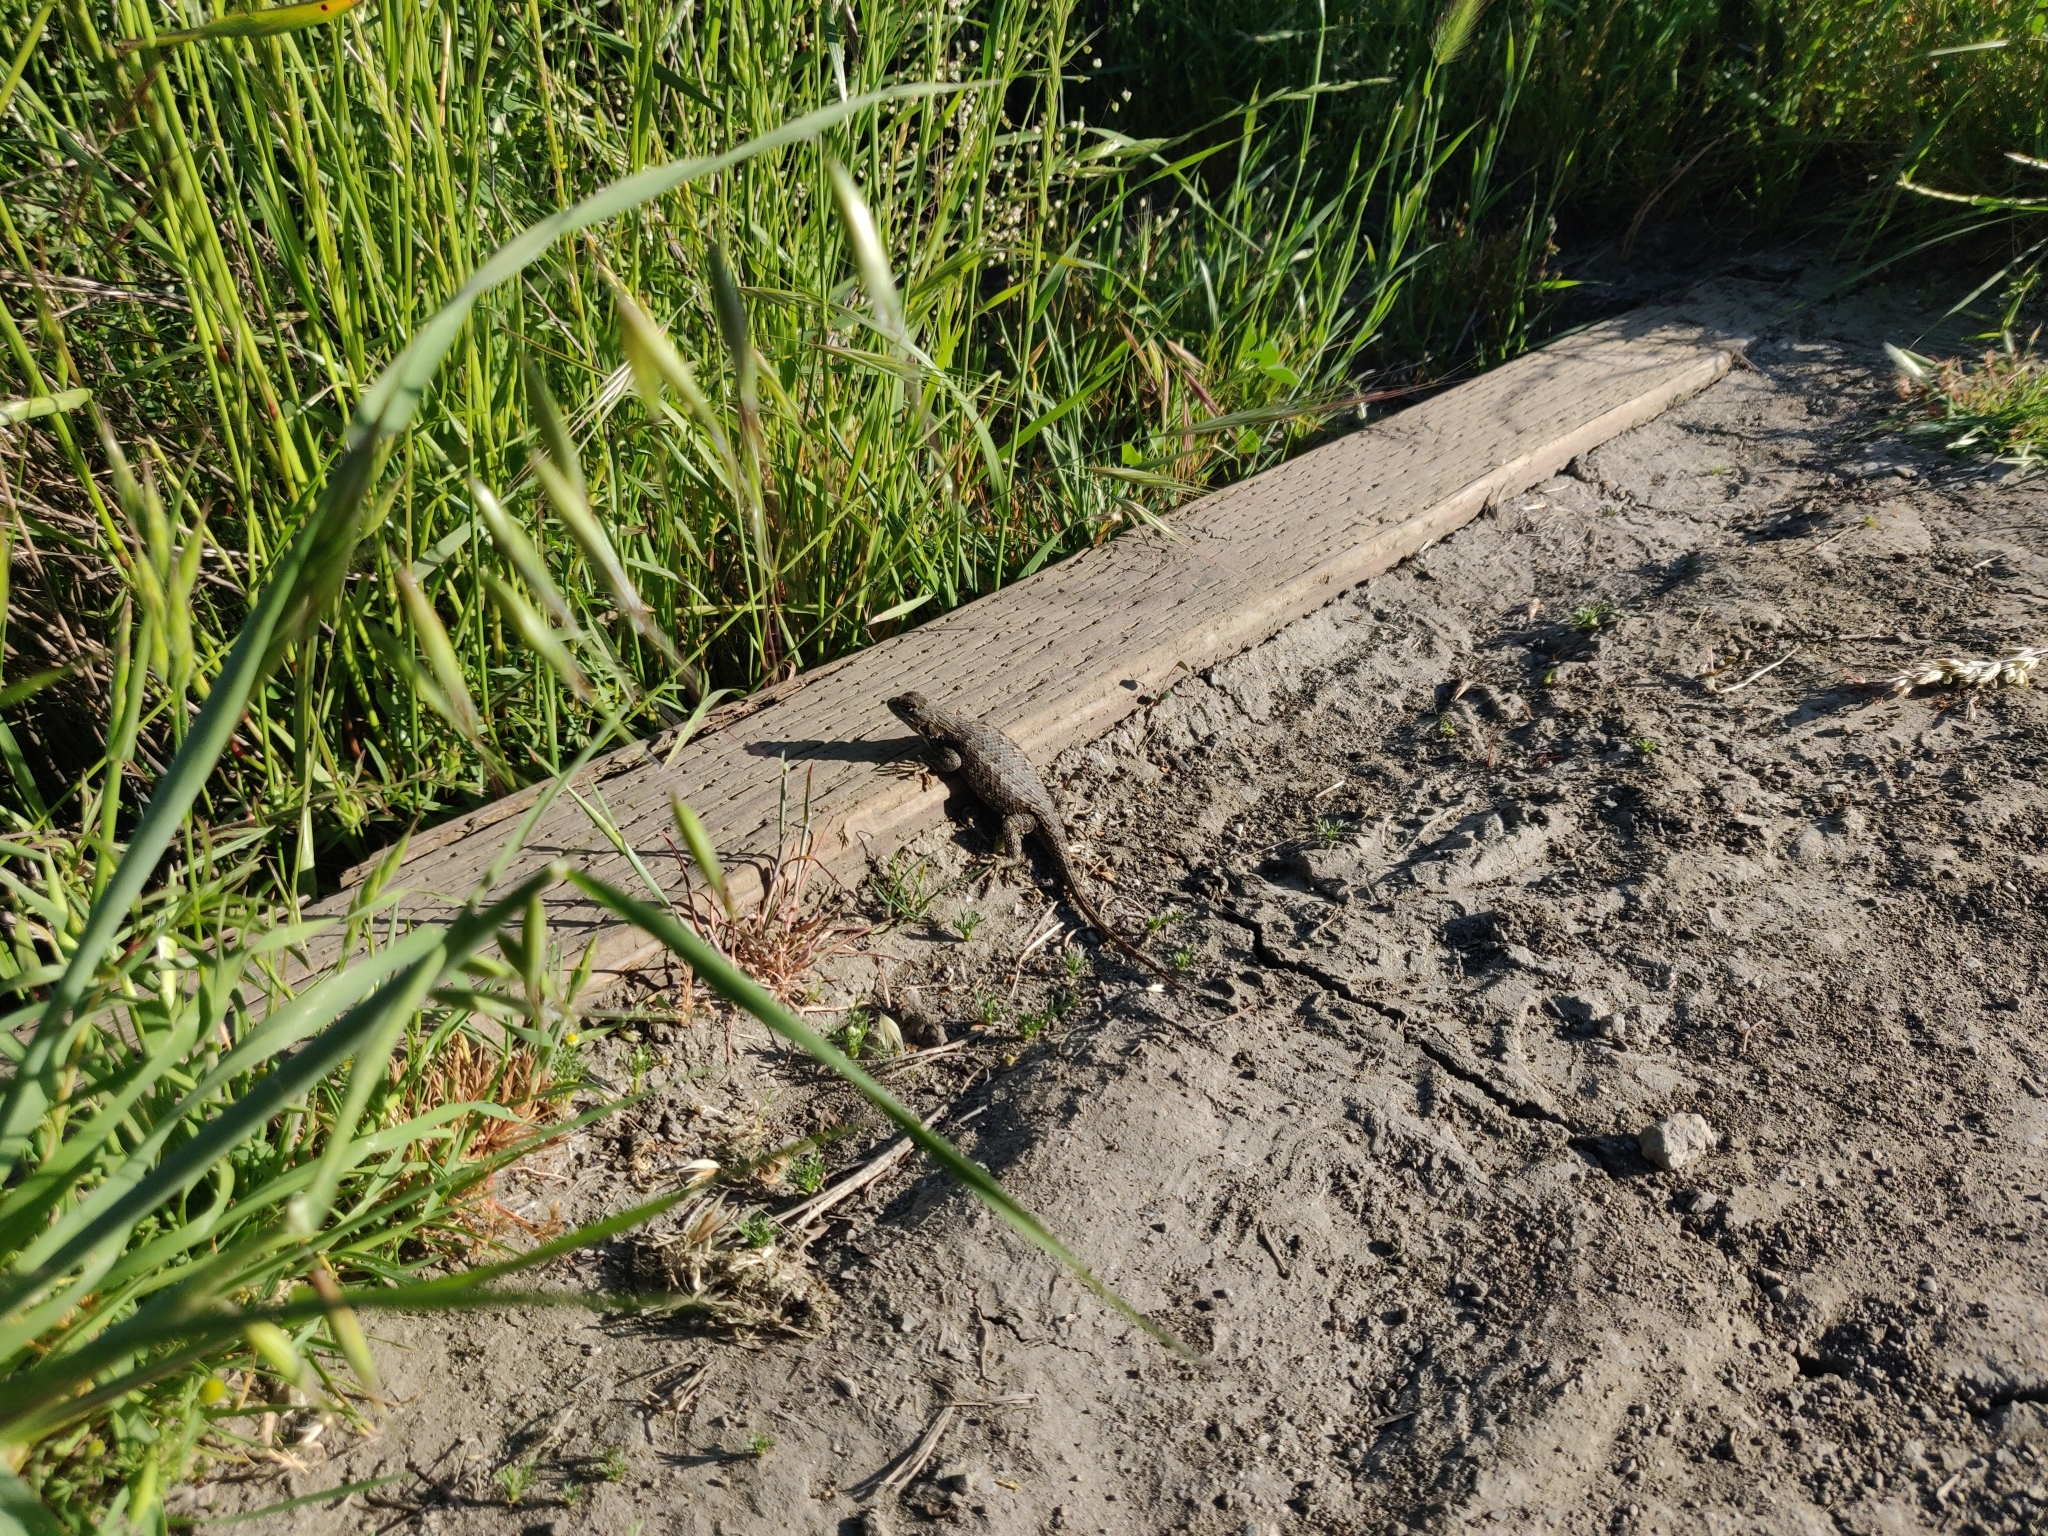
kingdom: Animalia
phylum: Chordata
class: Squamata
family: Phrynosomatidae
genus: Sceloporus
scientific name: Sceloporus occidentalis
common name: Western fence lizard
